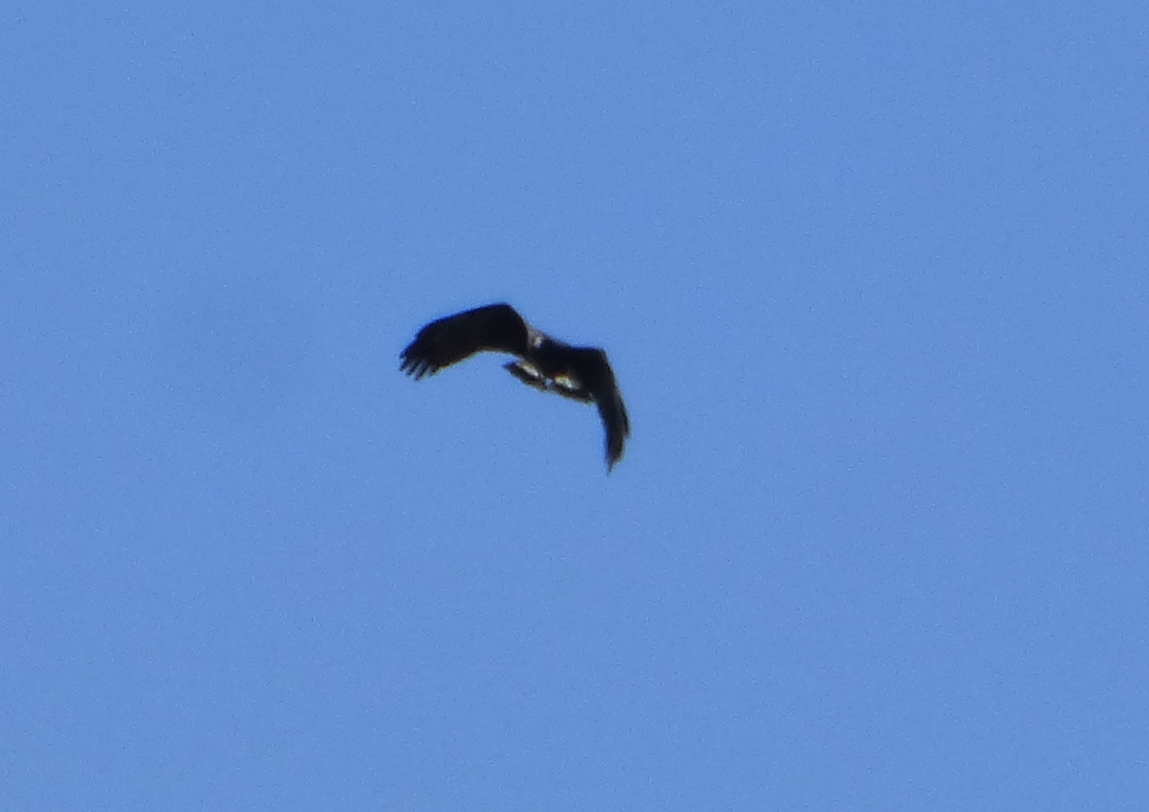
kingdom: Animalia
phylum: Chordata
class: Aves
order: Accipitriformes
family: Accipitridae
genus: Buteogallus
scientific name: Buteogallus urubitinga
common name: Great black hawk
